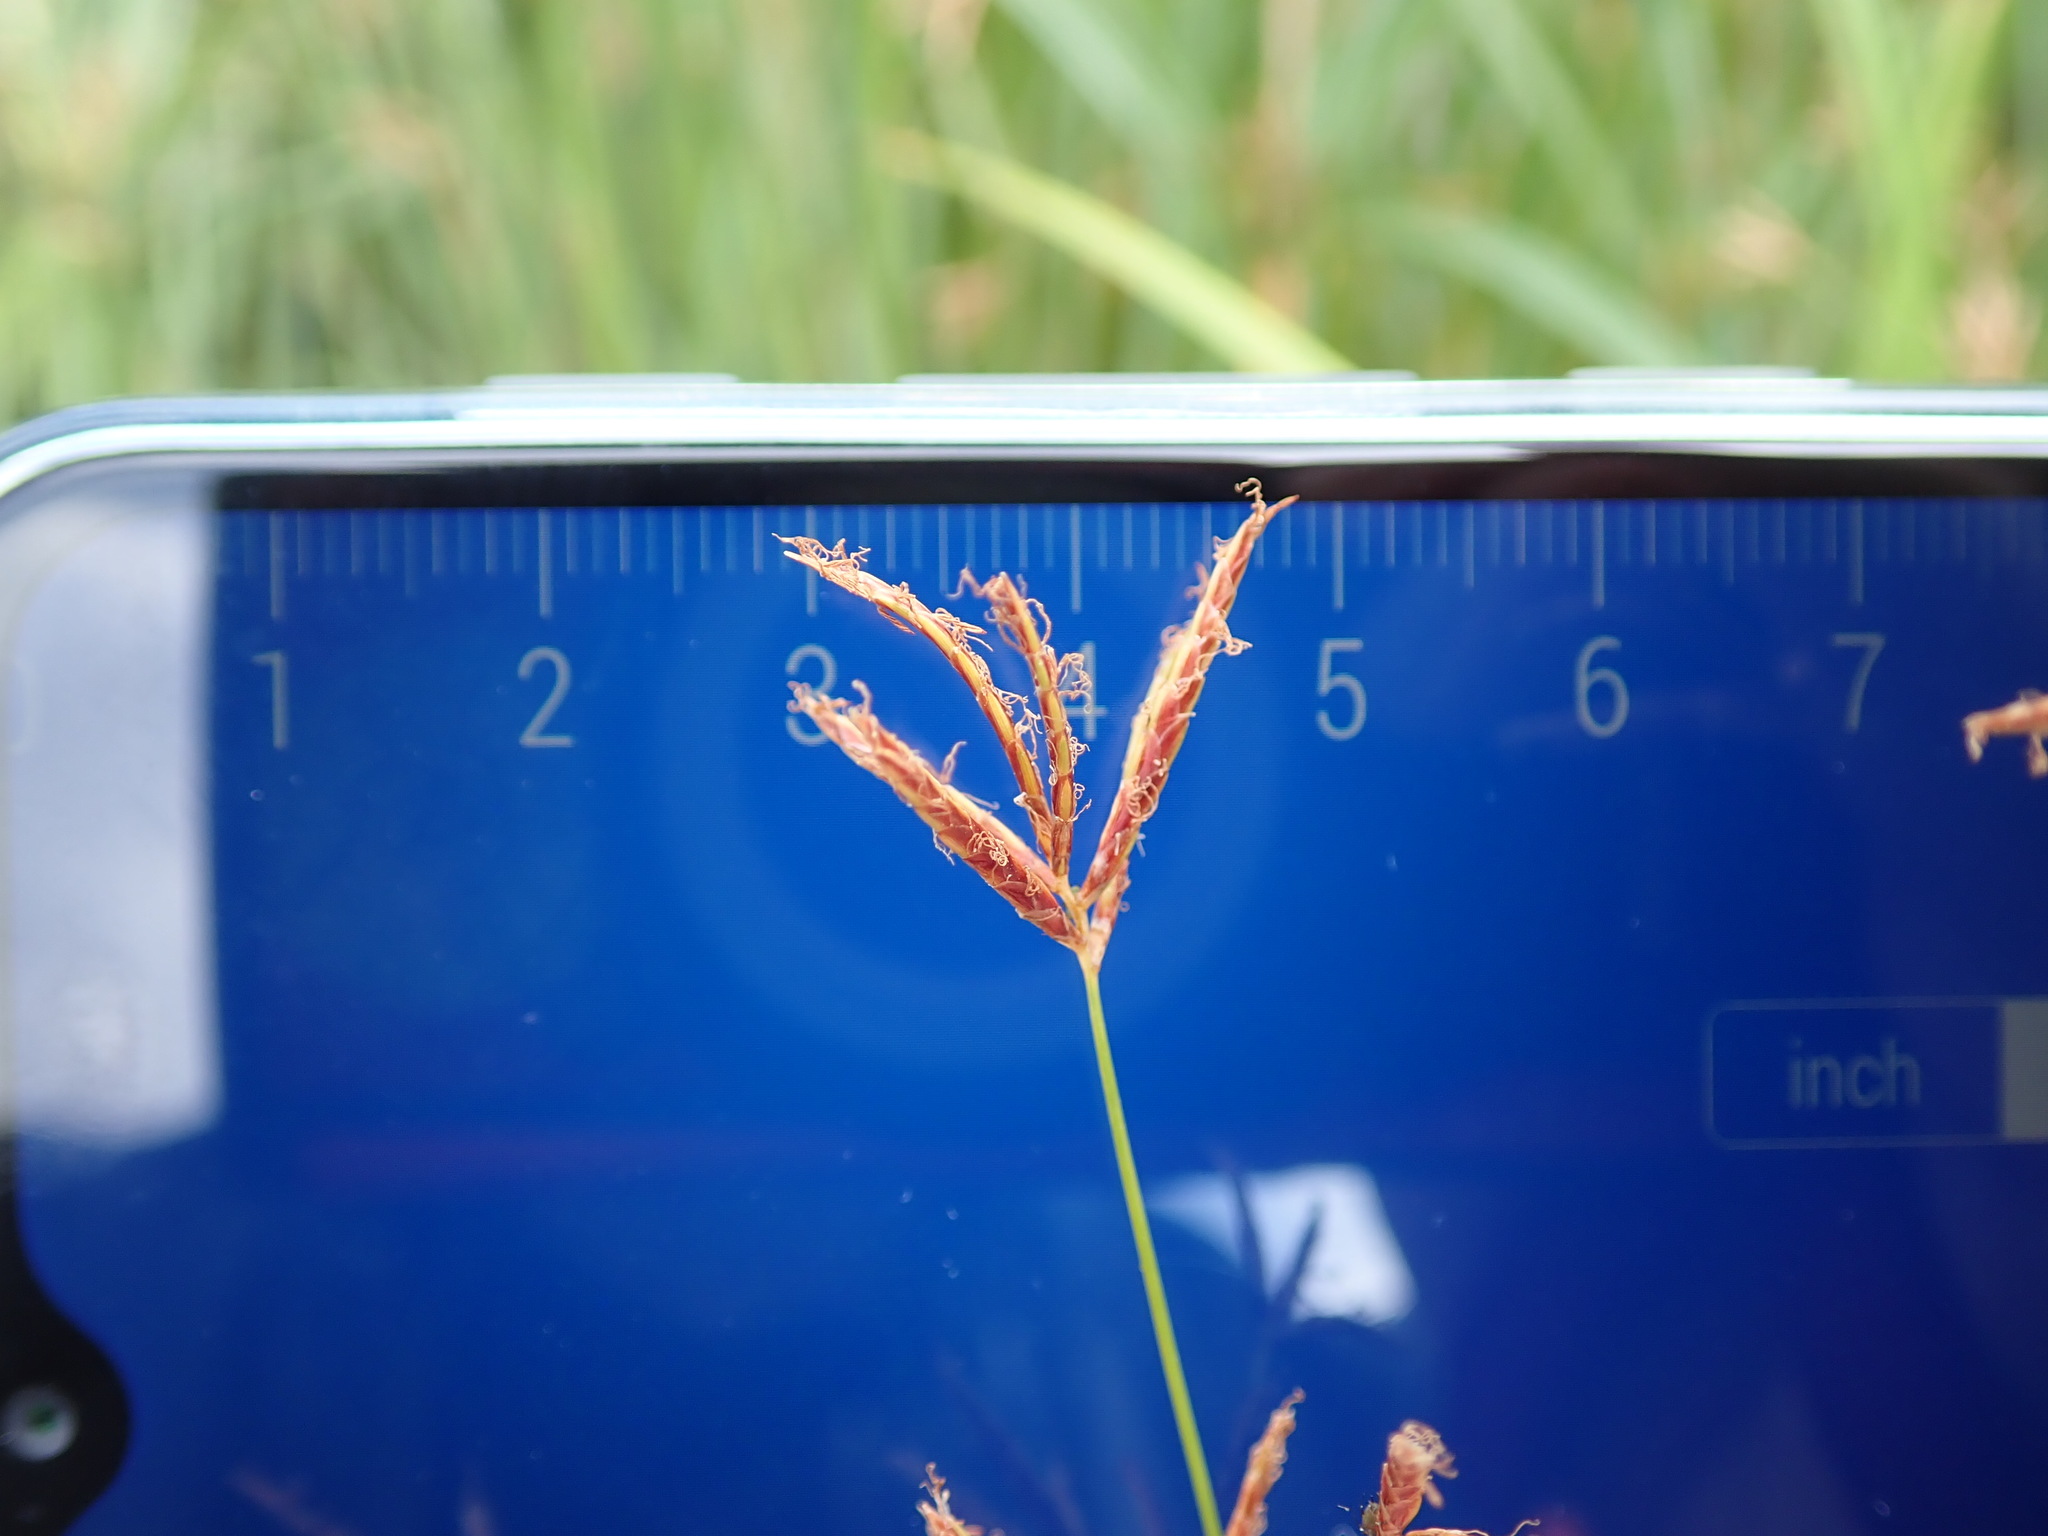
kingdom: Plantae
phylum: Tracheophyta
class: Liliopsida
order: Poales
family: Cyperaceae
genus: Cyperus
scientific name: Cyperus longus
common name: Galingale
